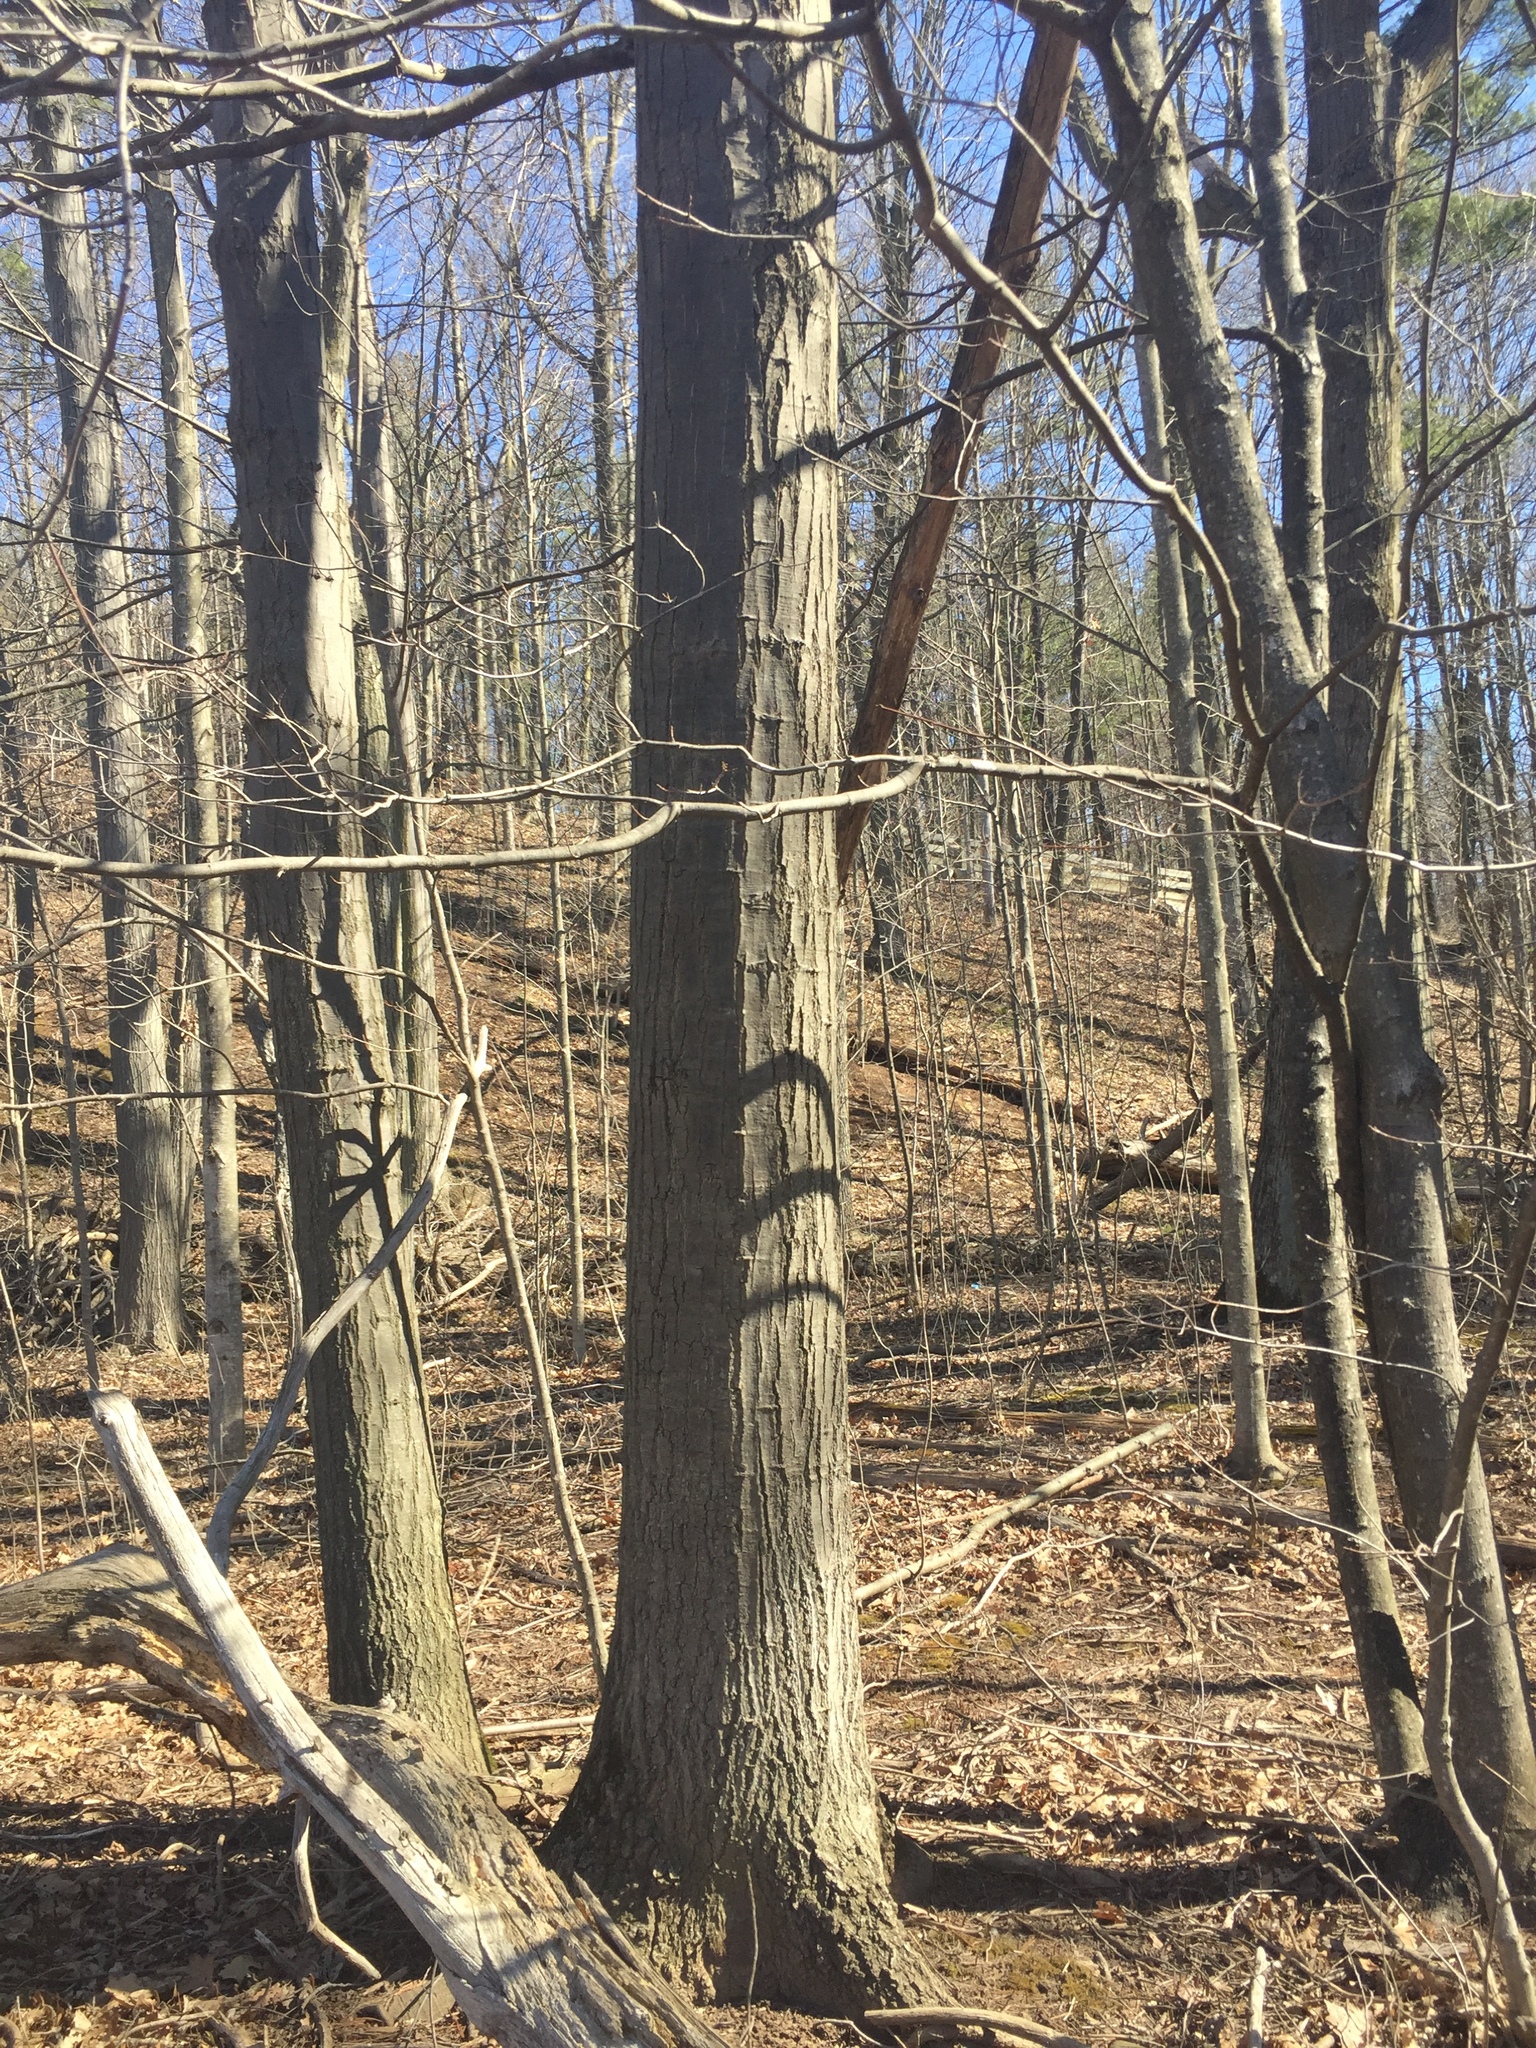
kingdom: Plantae
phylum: Tracheophyta
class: Magnoliopsida
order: Fagales
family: Fagaceae
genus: Quercus
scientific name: Quercus rubra
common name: Red oak
